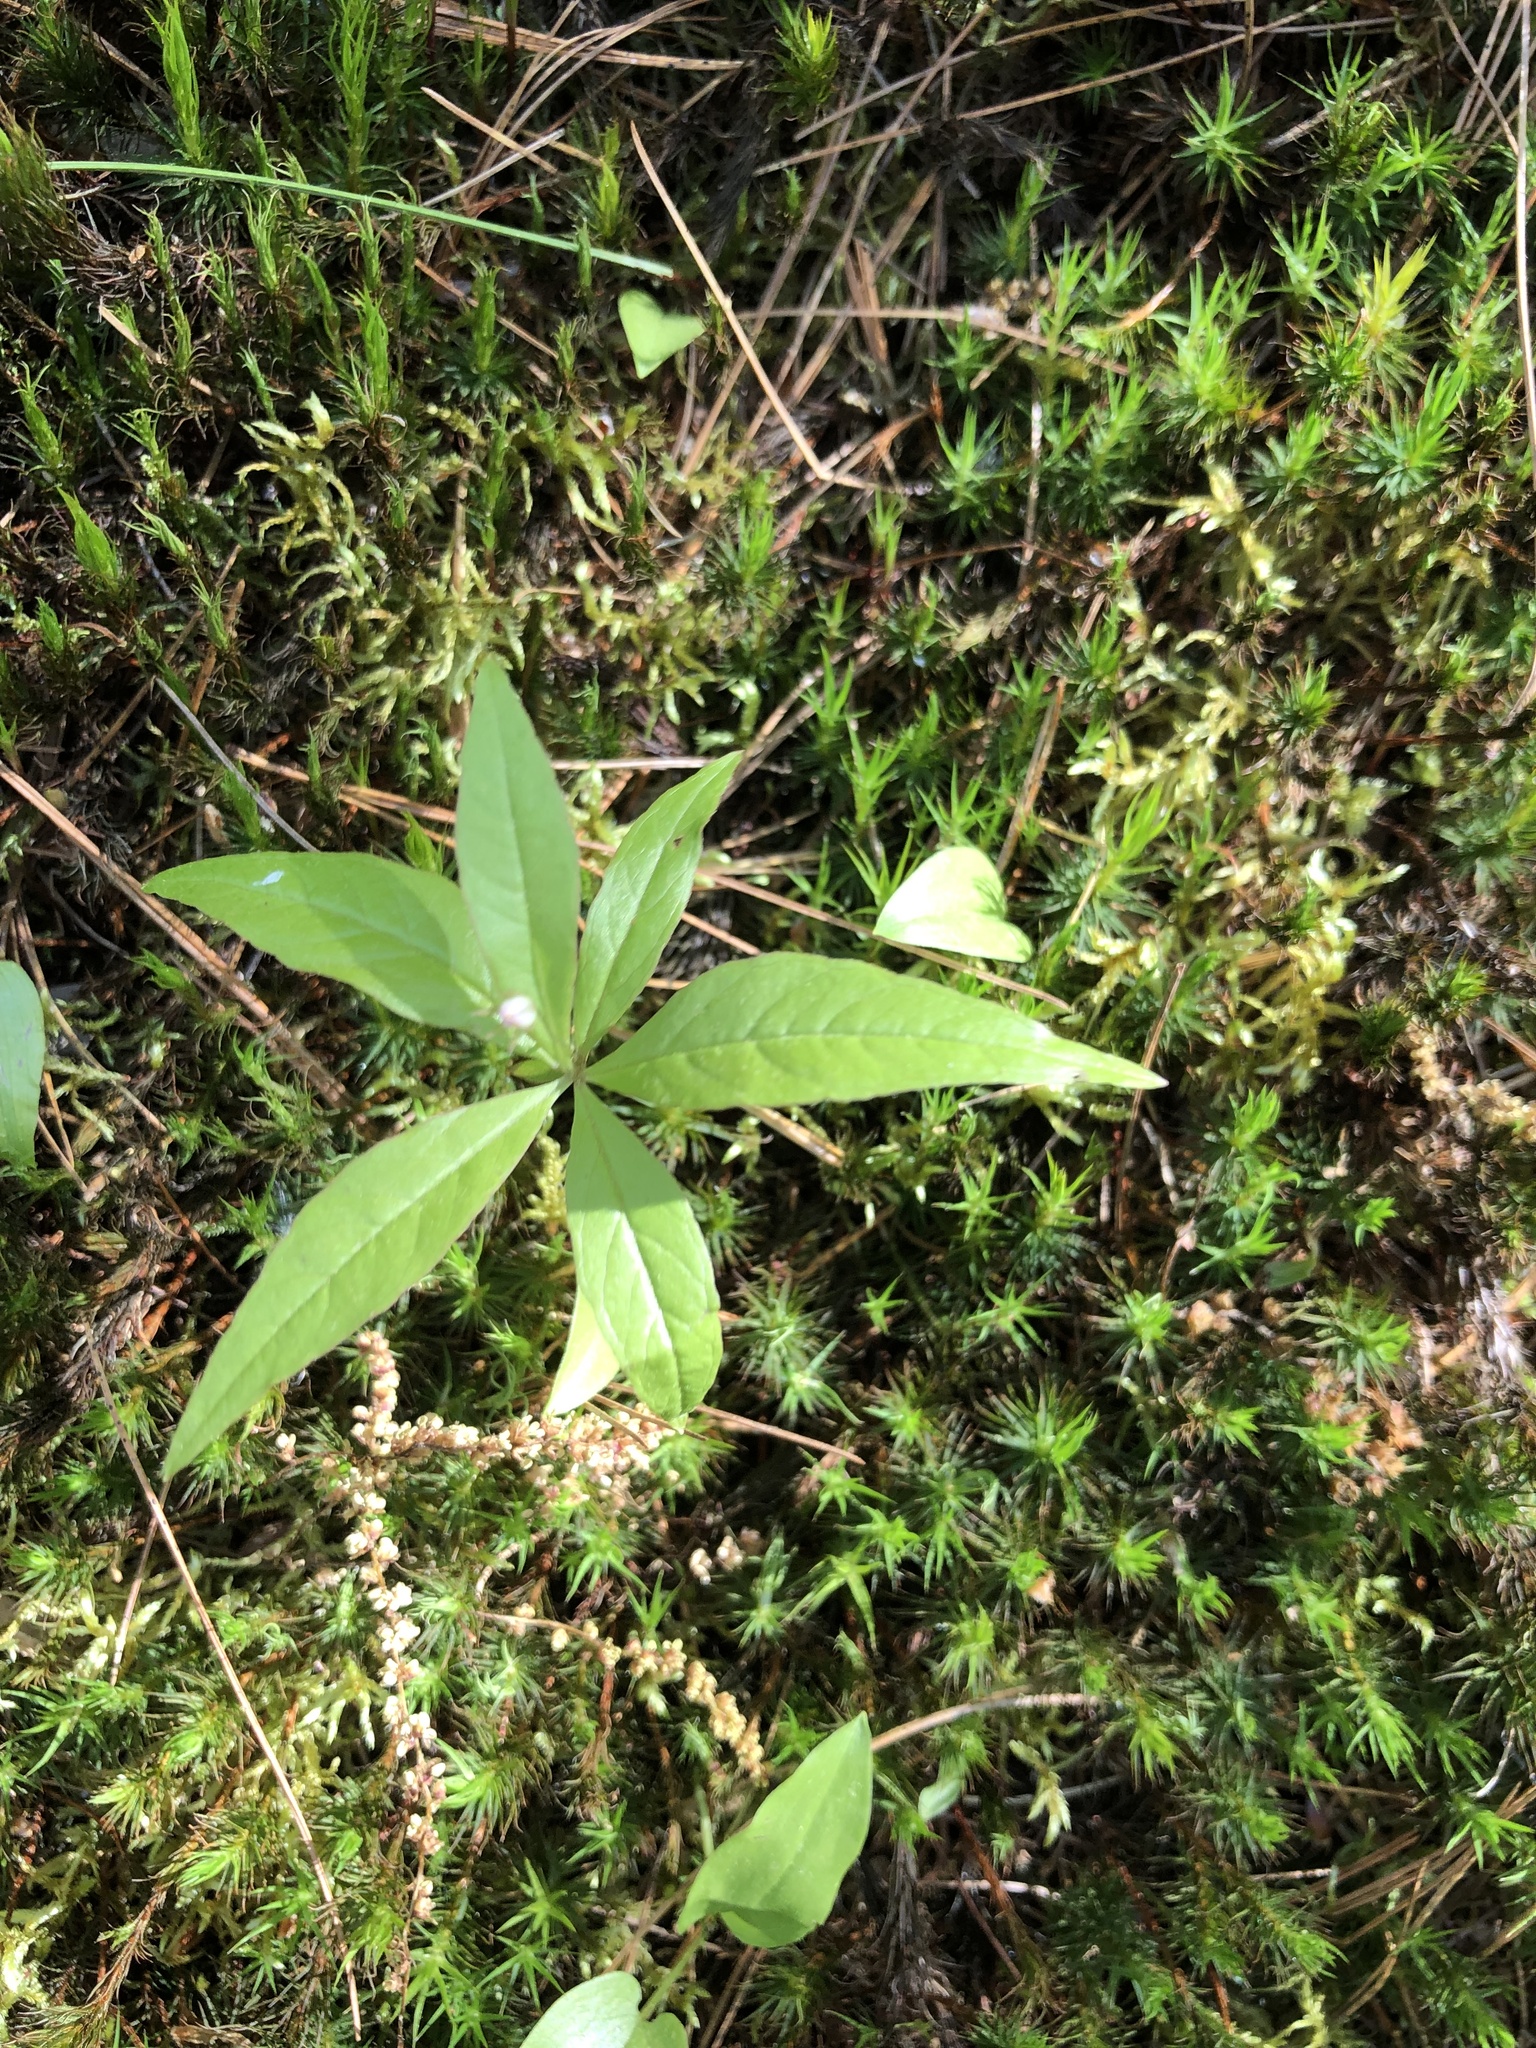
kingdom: Plantae
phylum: Tracheophyta
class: Magnoliopsida
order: Ericales
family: Primulaceae
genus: Lysimachia
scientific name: Lysimachia borealis
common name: American starflower
